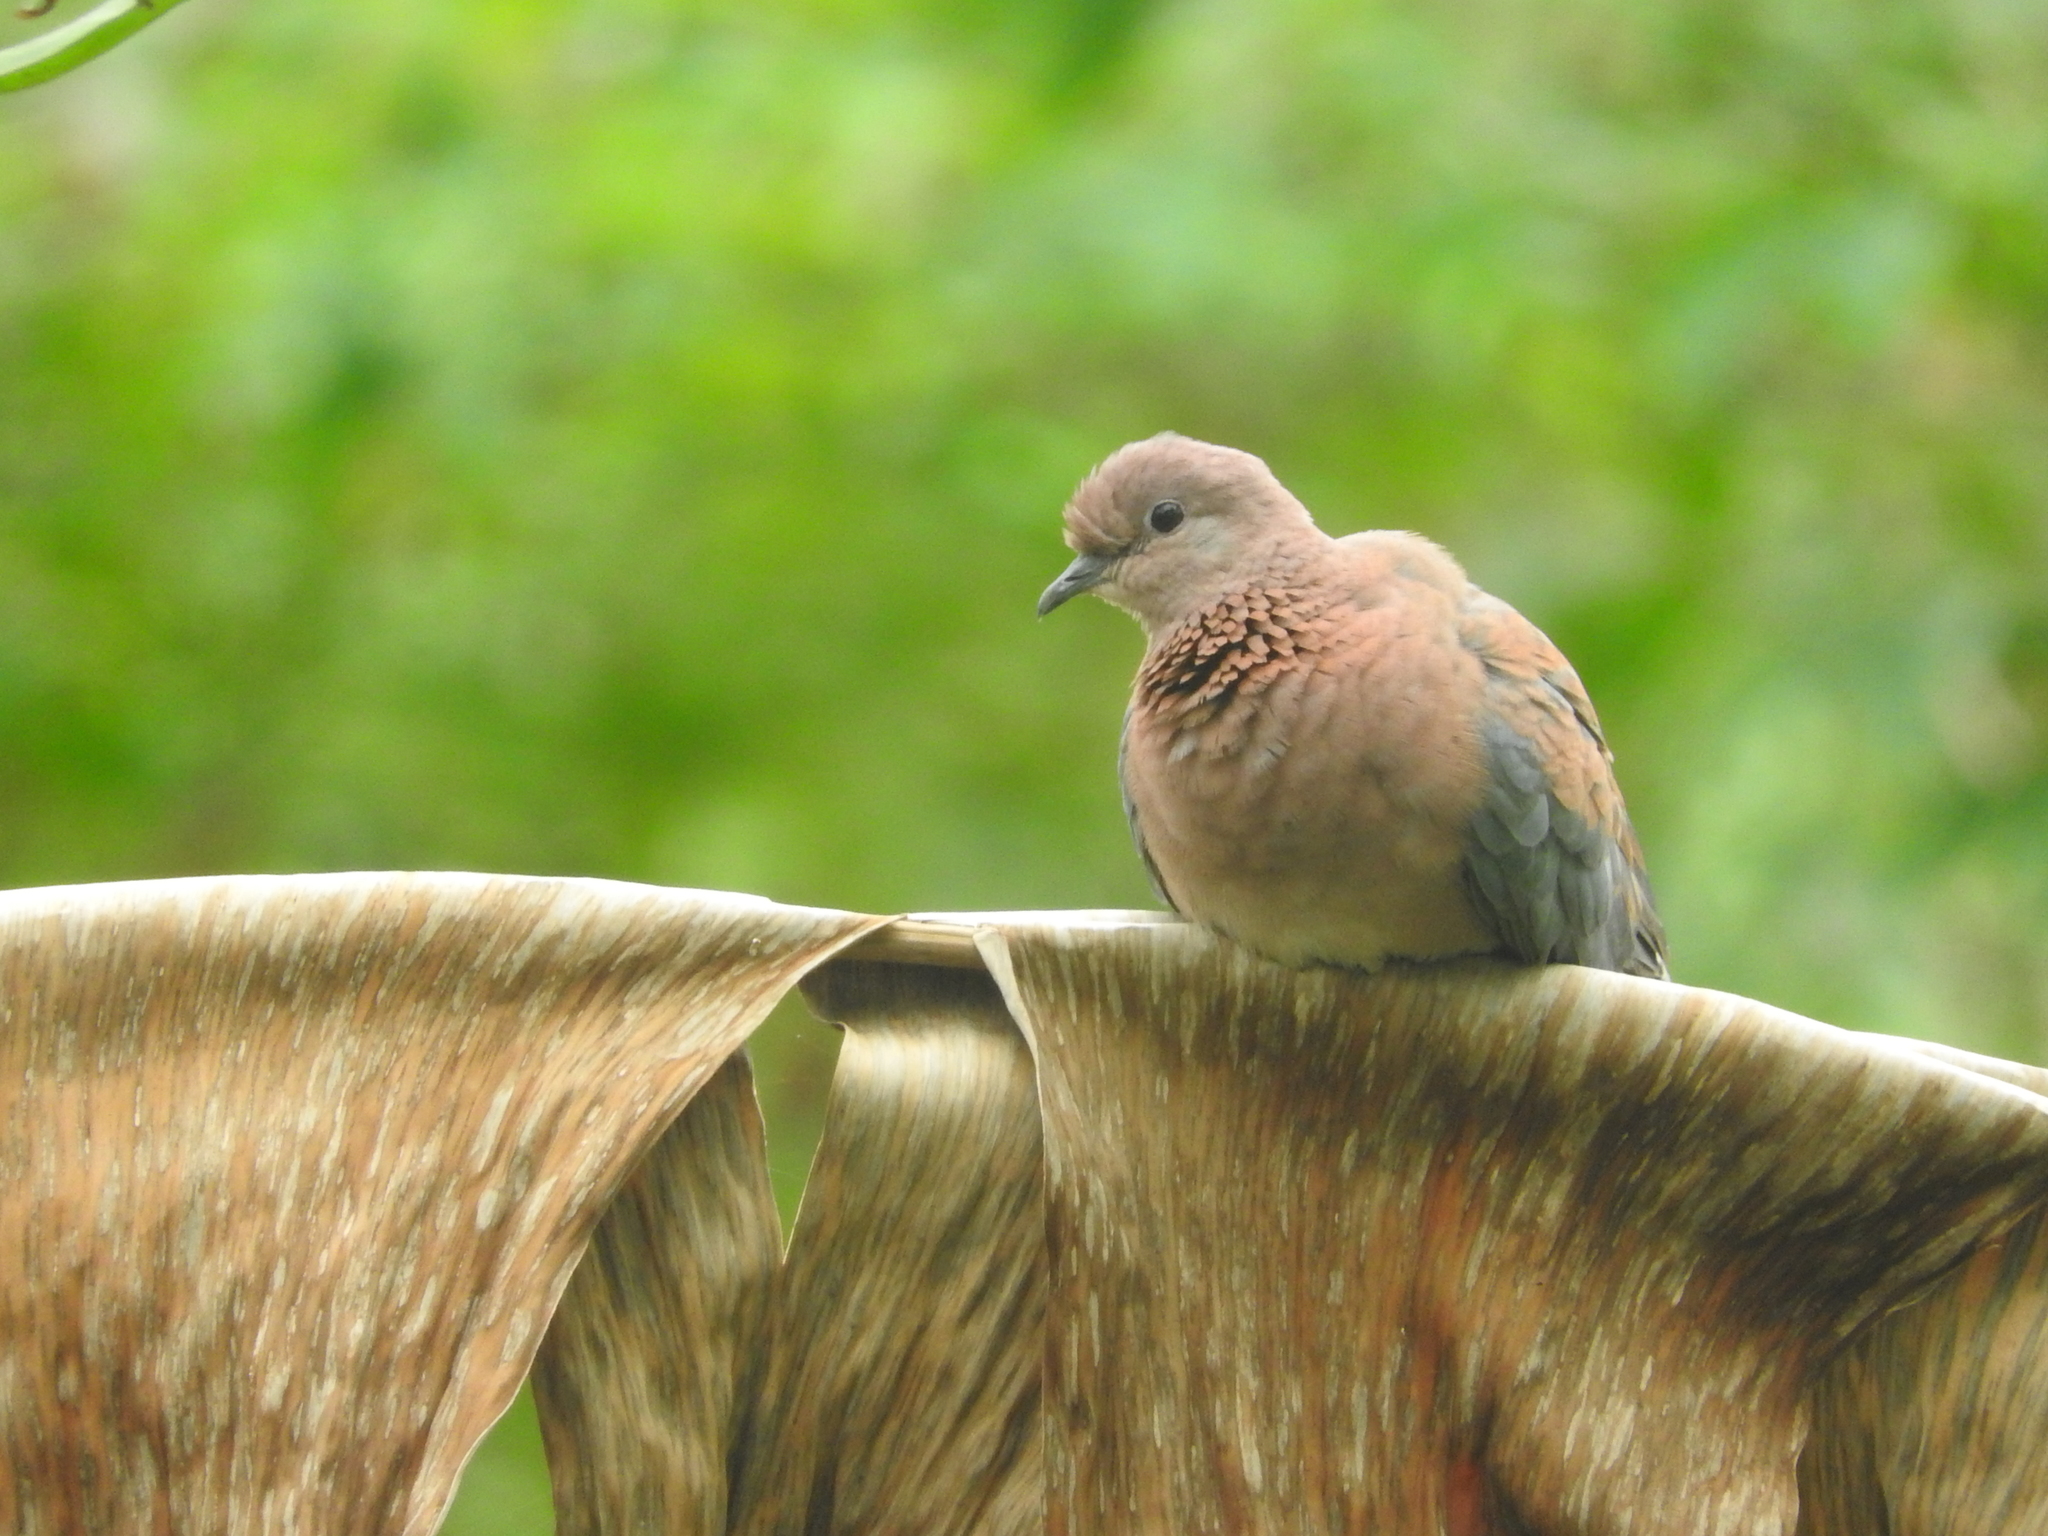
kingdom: Animalia
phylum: Chordata
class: Aves
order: Columbiformes
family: Columbidae
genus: Spilopelia
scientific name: Spilopelia senegalensis
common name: Laughing dove
